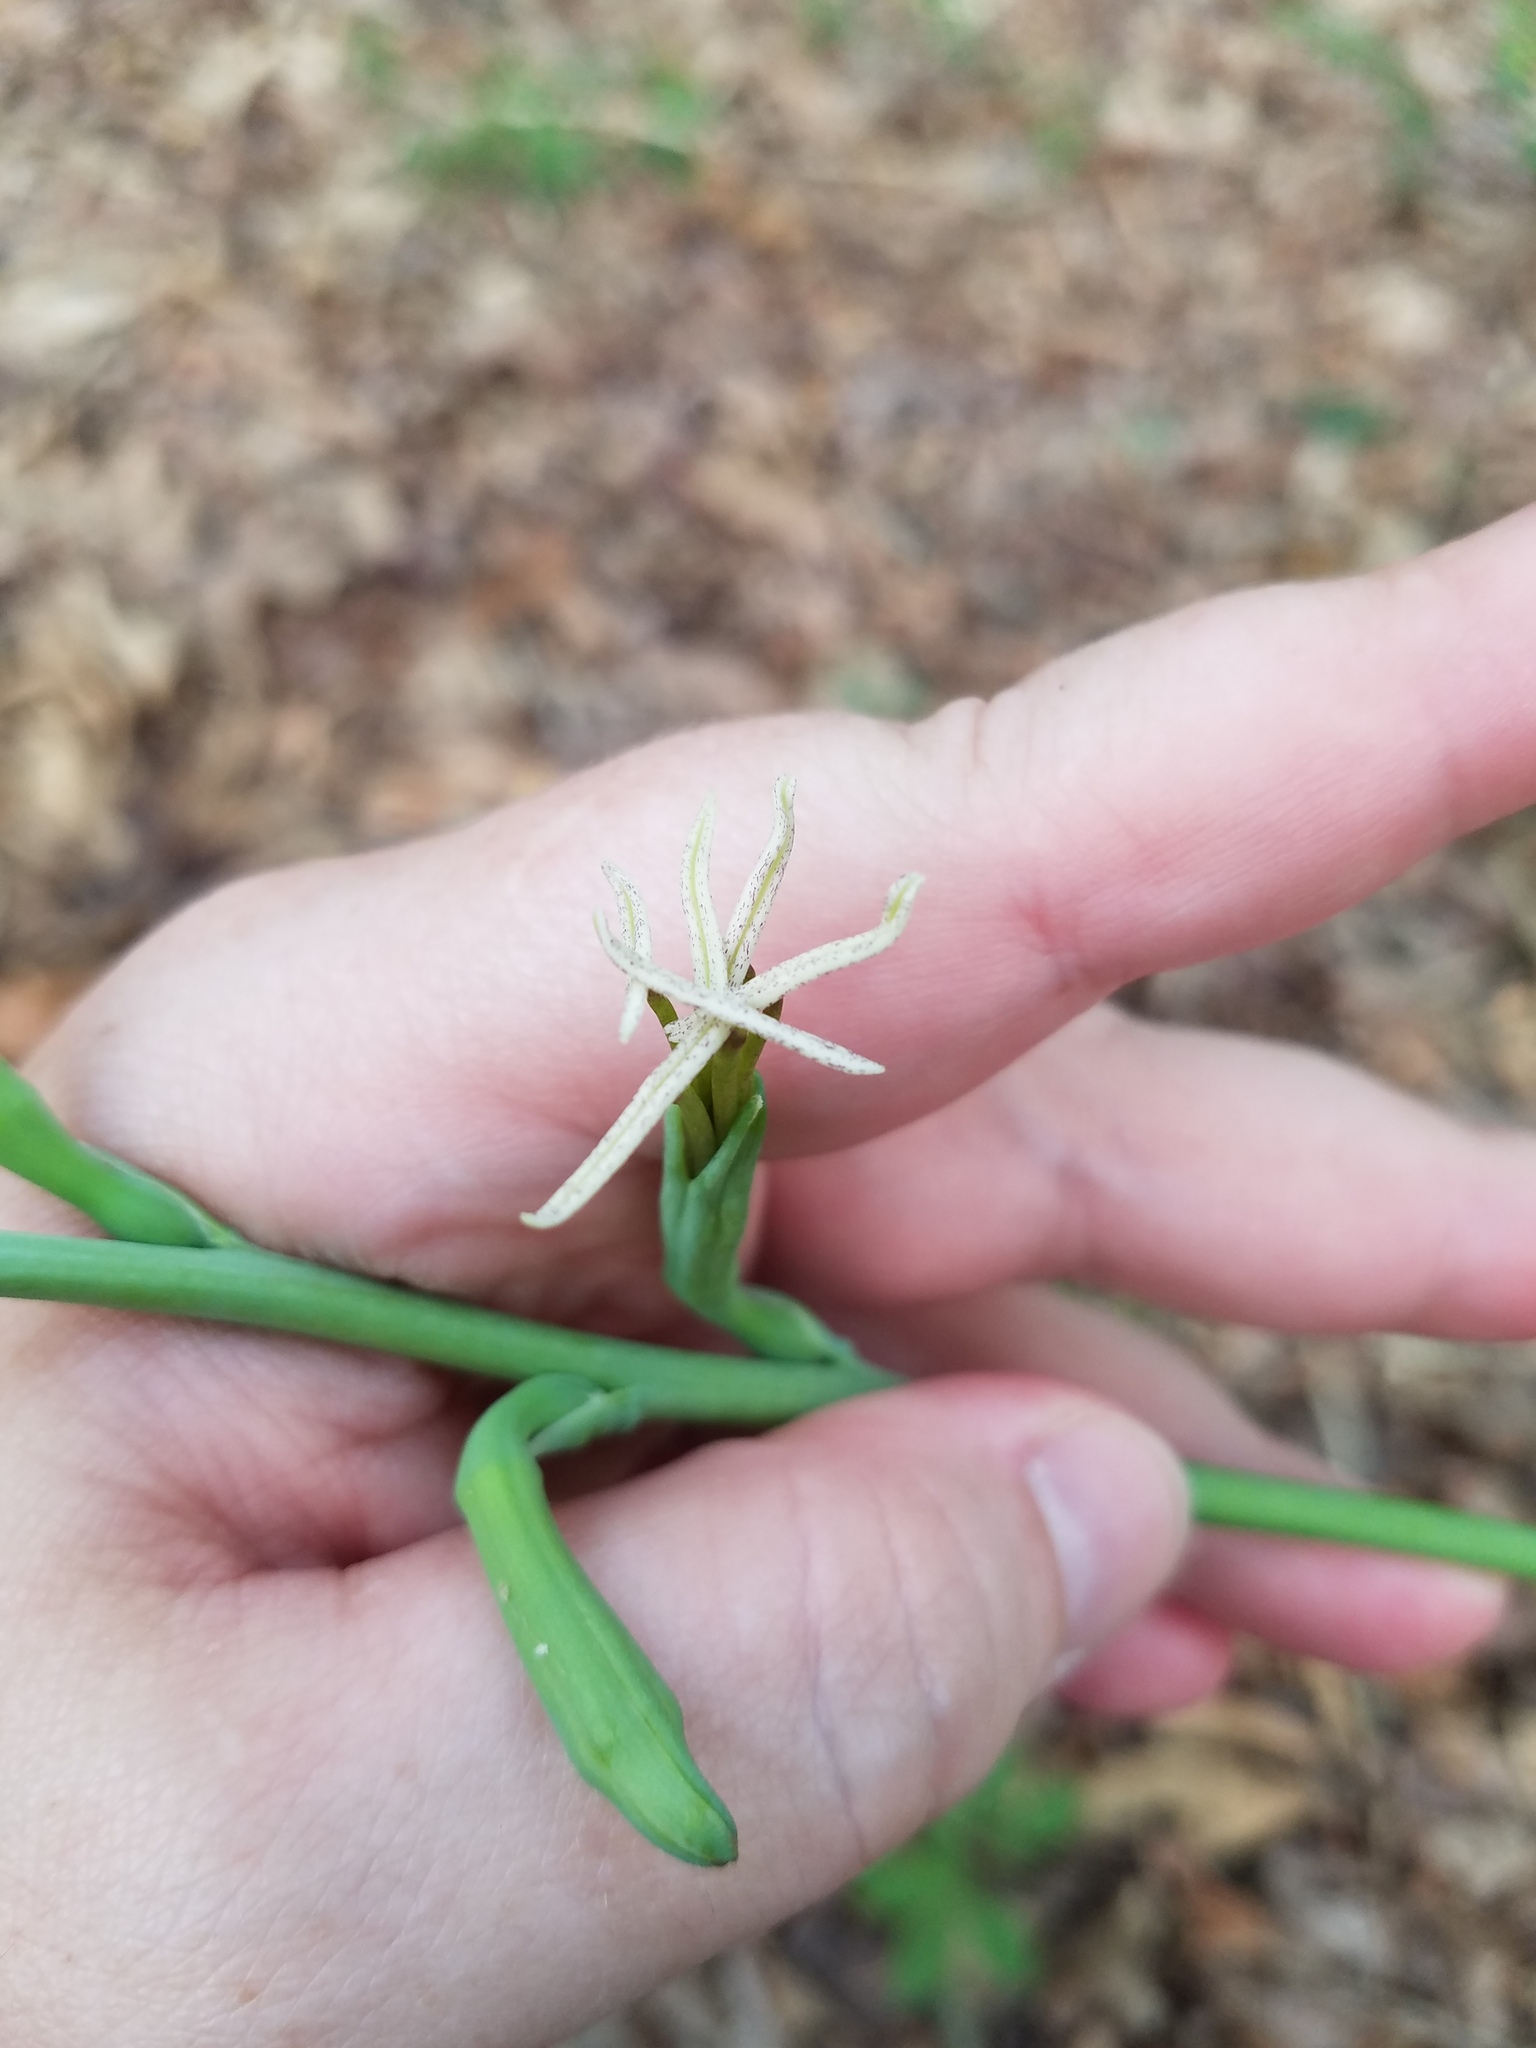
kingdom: Plantae
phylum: Tracheophyta
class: Liliopsida
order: Asparagales
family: Asparagaceae
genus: Agave
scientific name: Agave virginica
